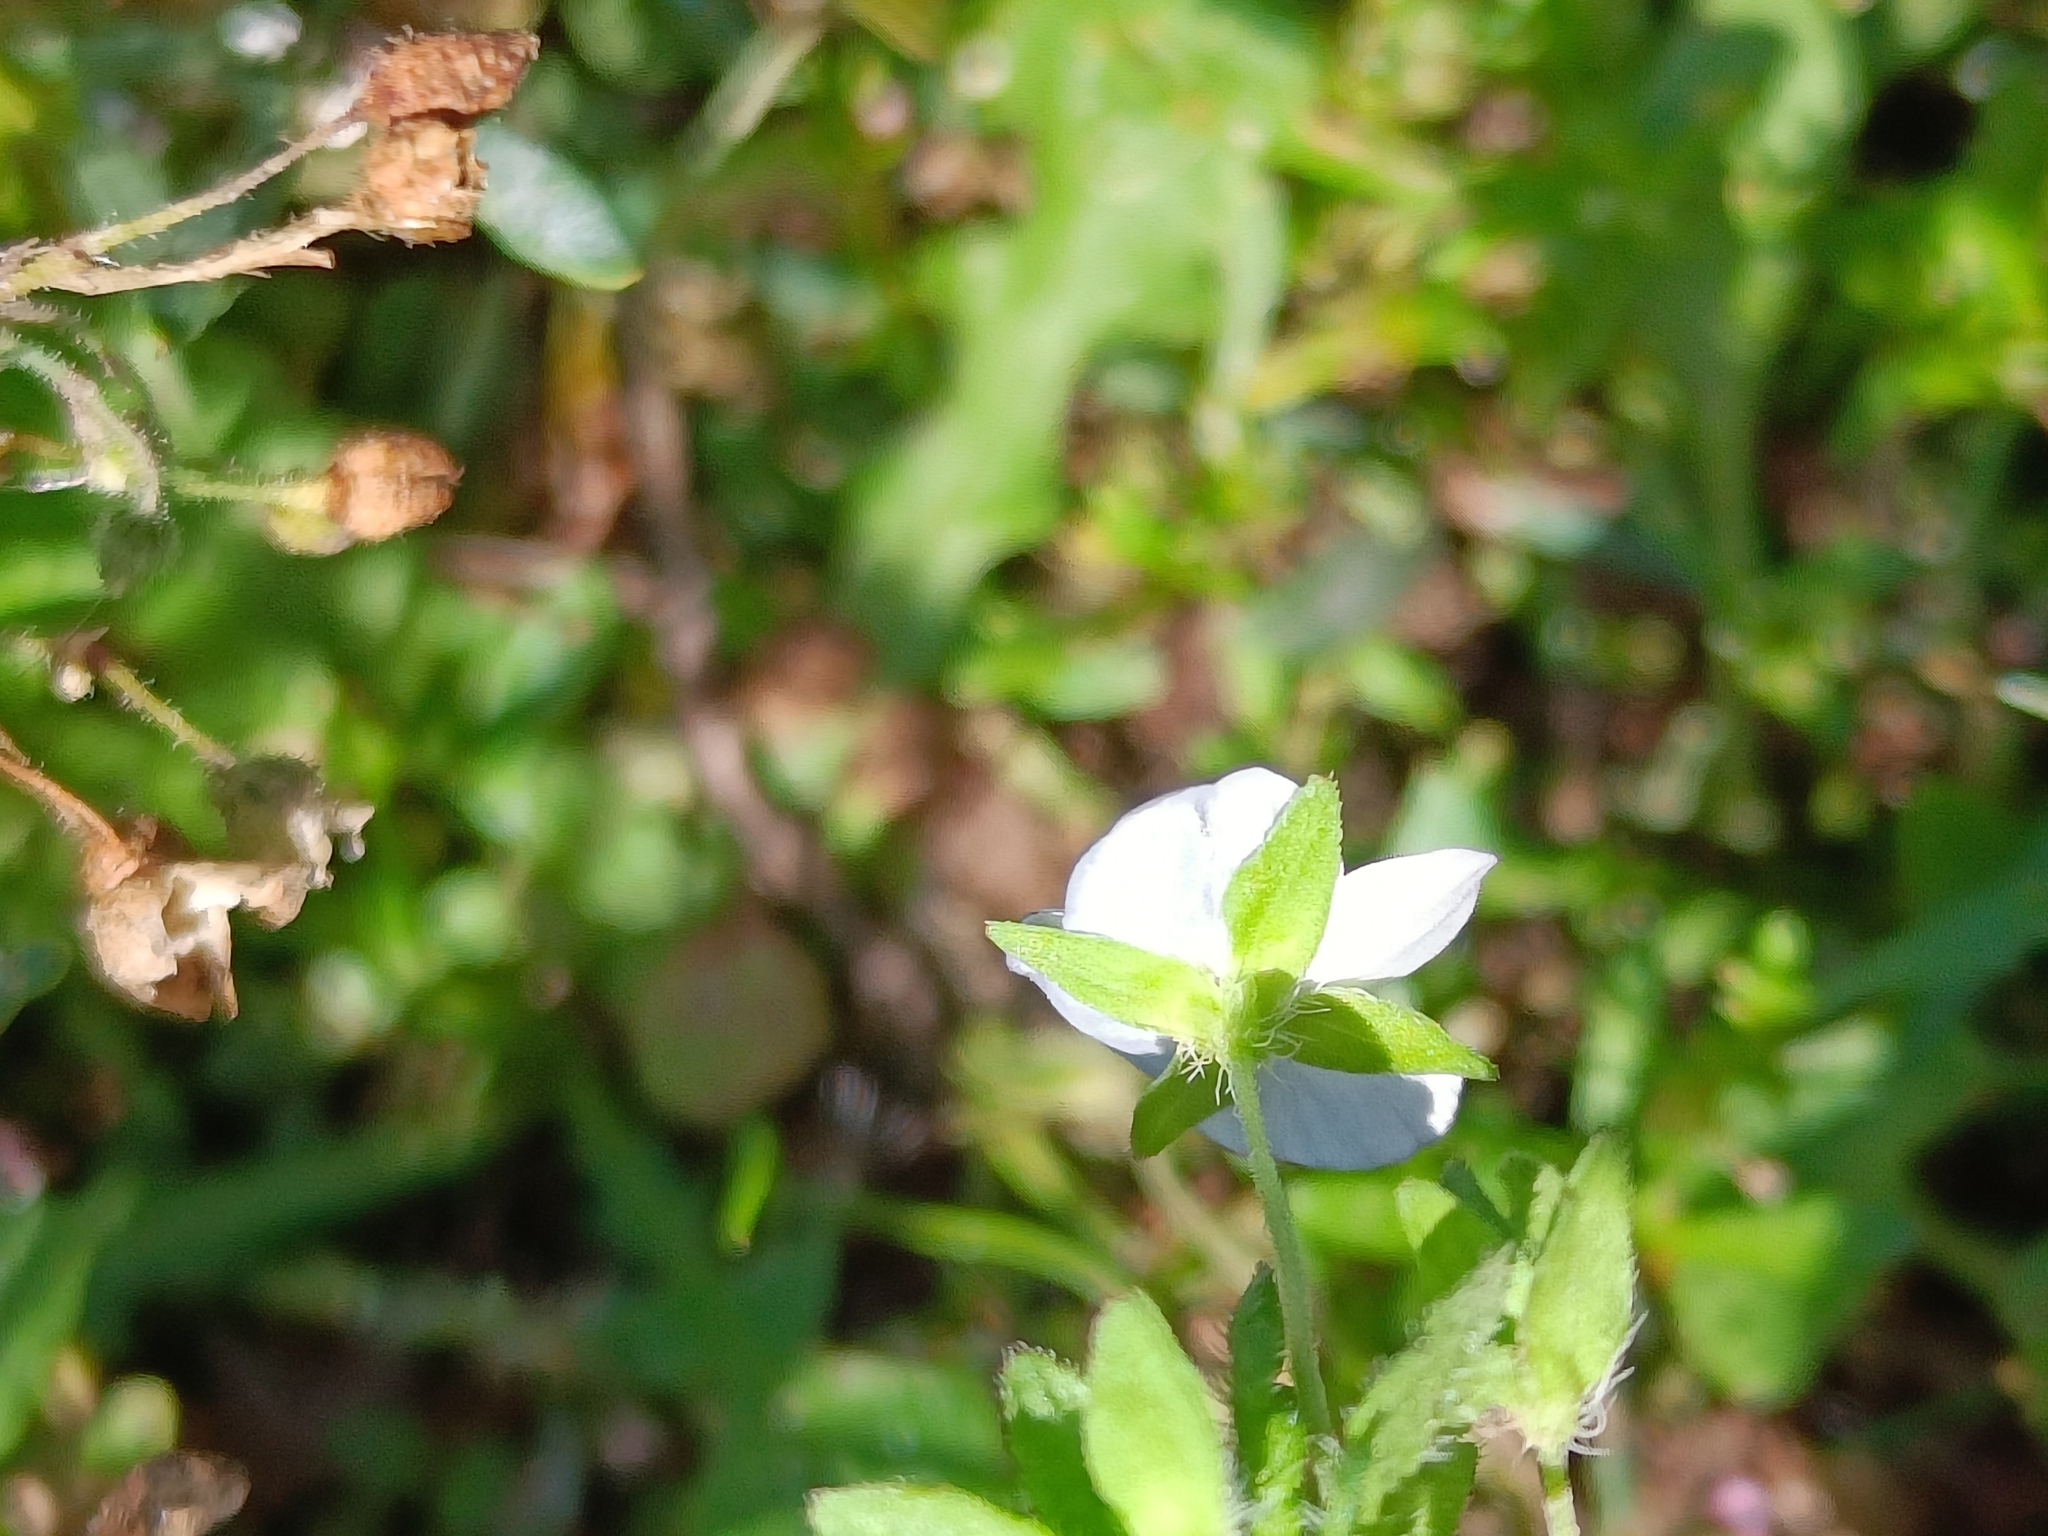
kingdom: Plantae
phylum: Tracheophyta
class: Magnoliopsida
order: Lamiales
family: Plantaginaceae
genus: Veronica
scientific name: Veronica persica
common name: Common field-speedwell
